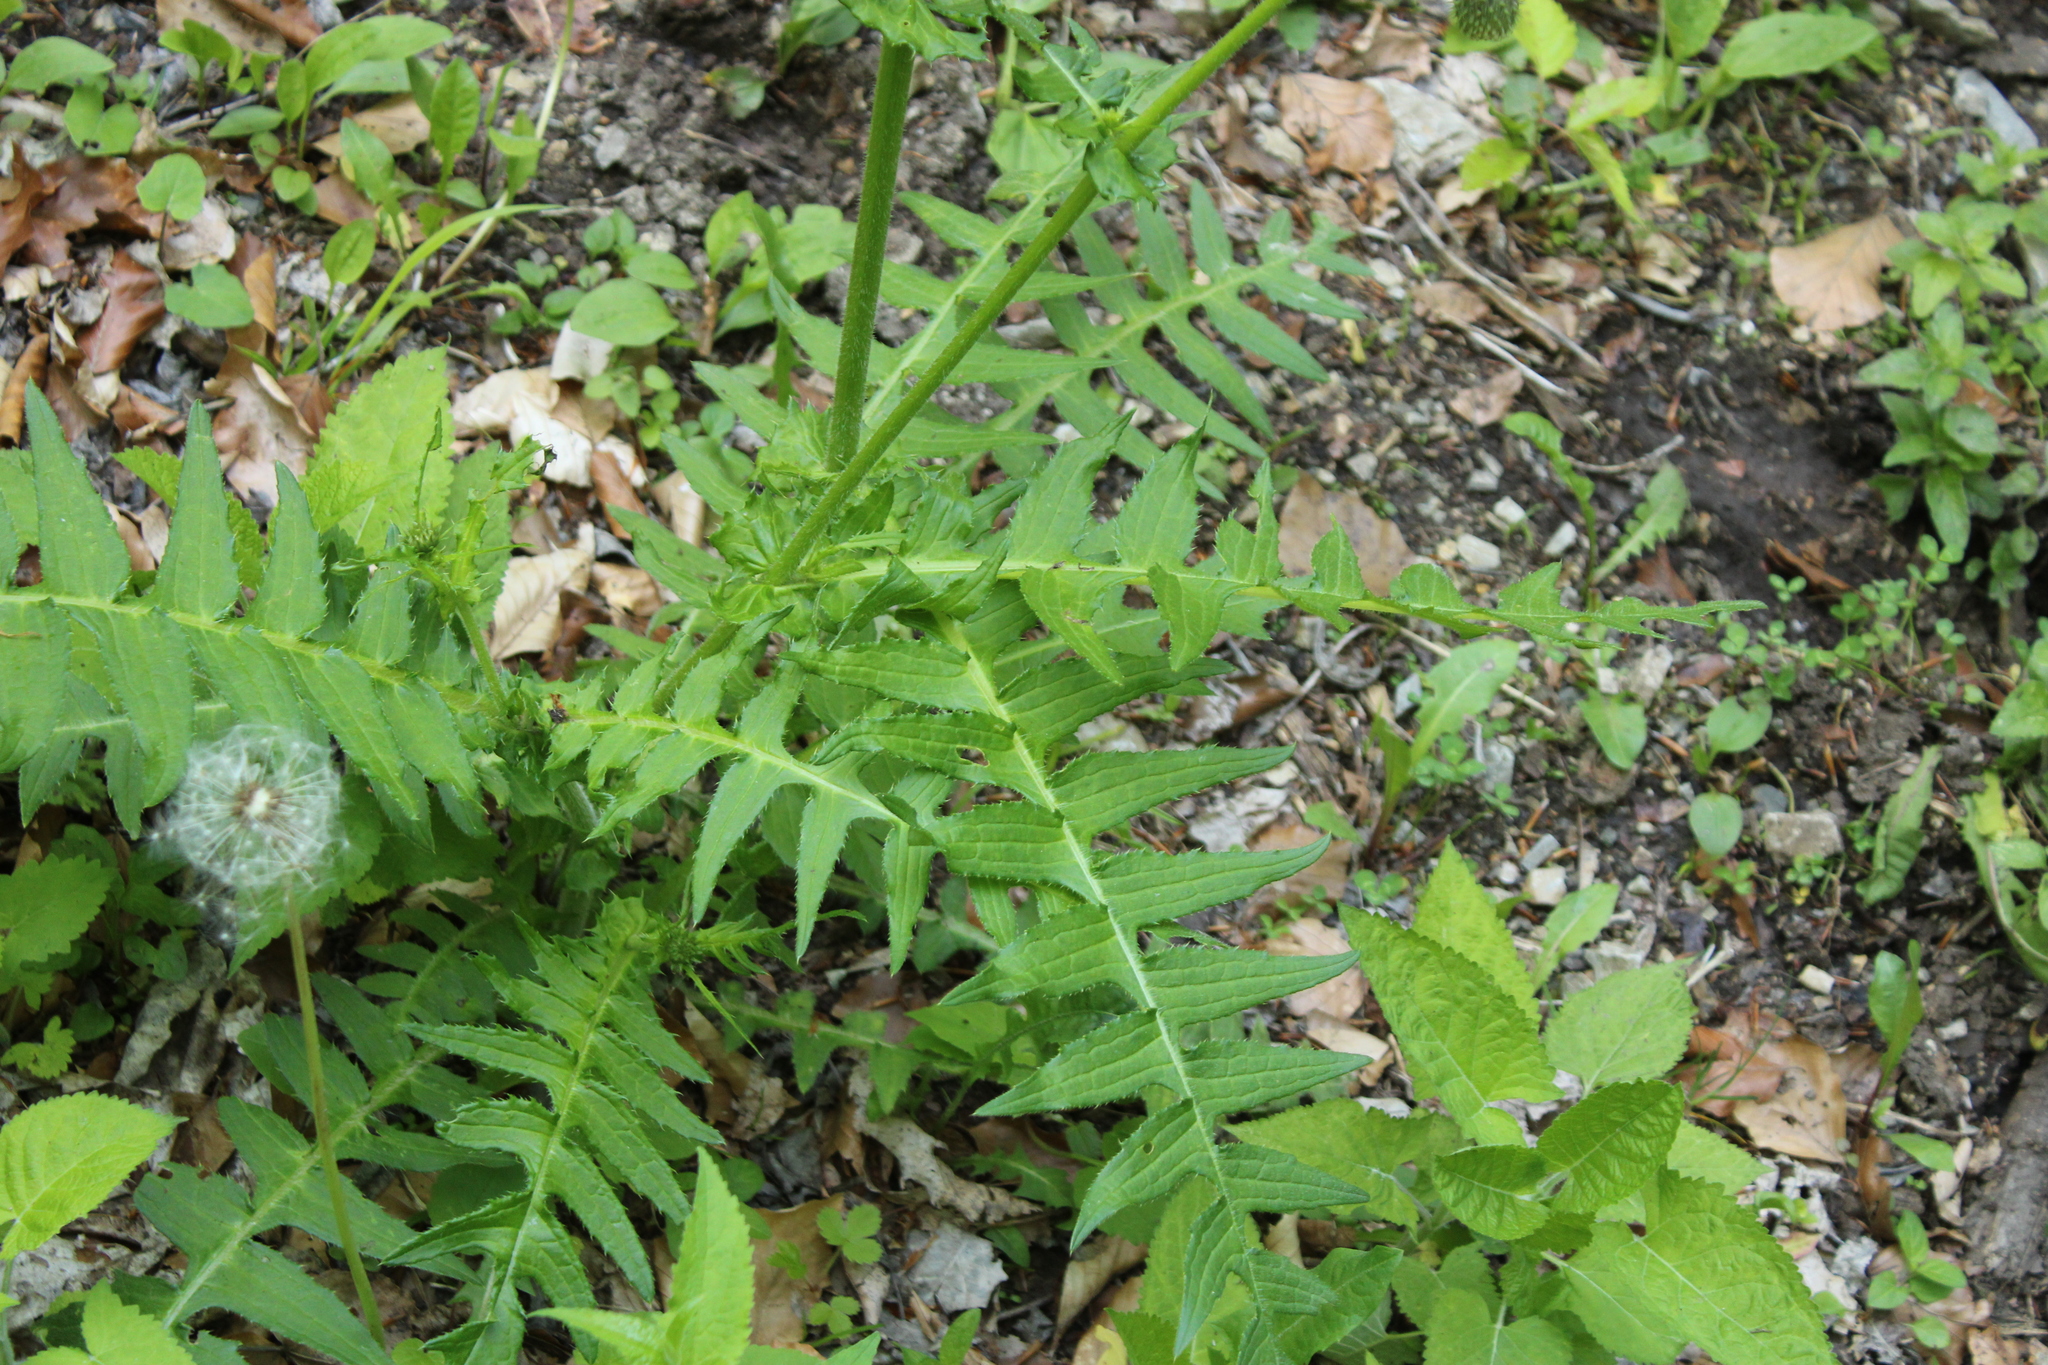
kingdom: Plantae
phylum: Tracheophyta
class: Magnoliopsida
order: Asterales
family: Asteraceae
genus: Cirsium
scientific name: Cirsium erisithales
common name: Yellow thistle
